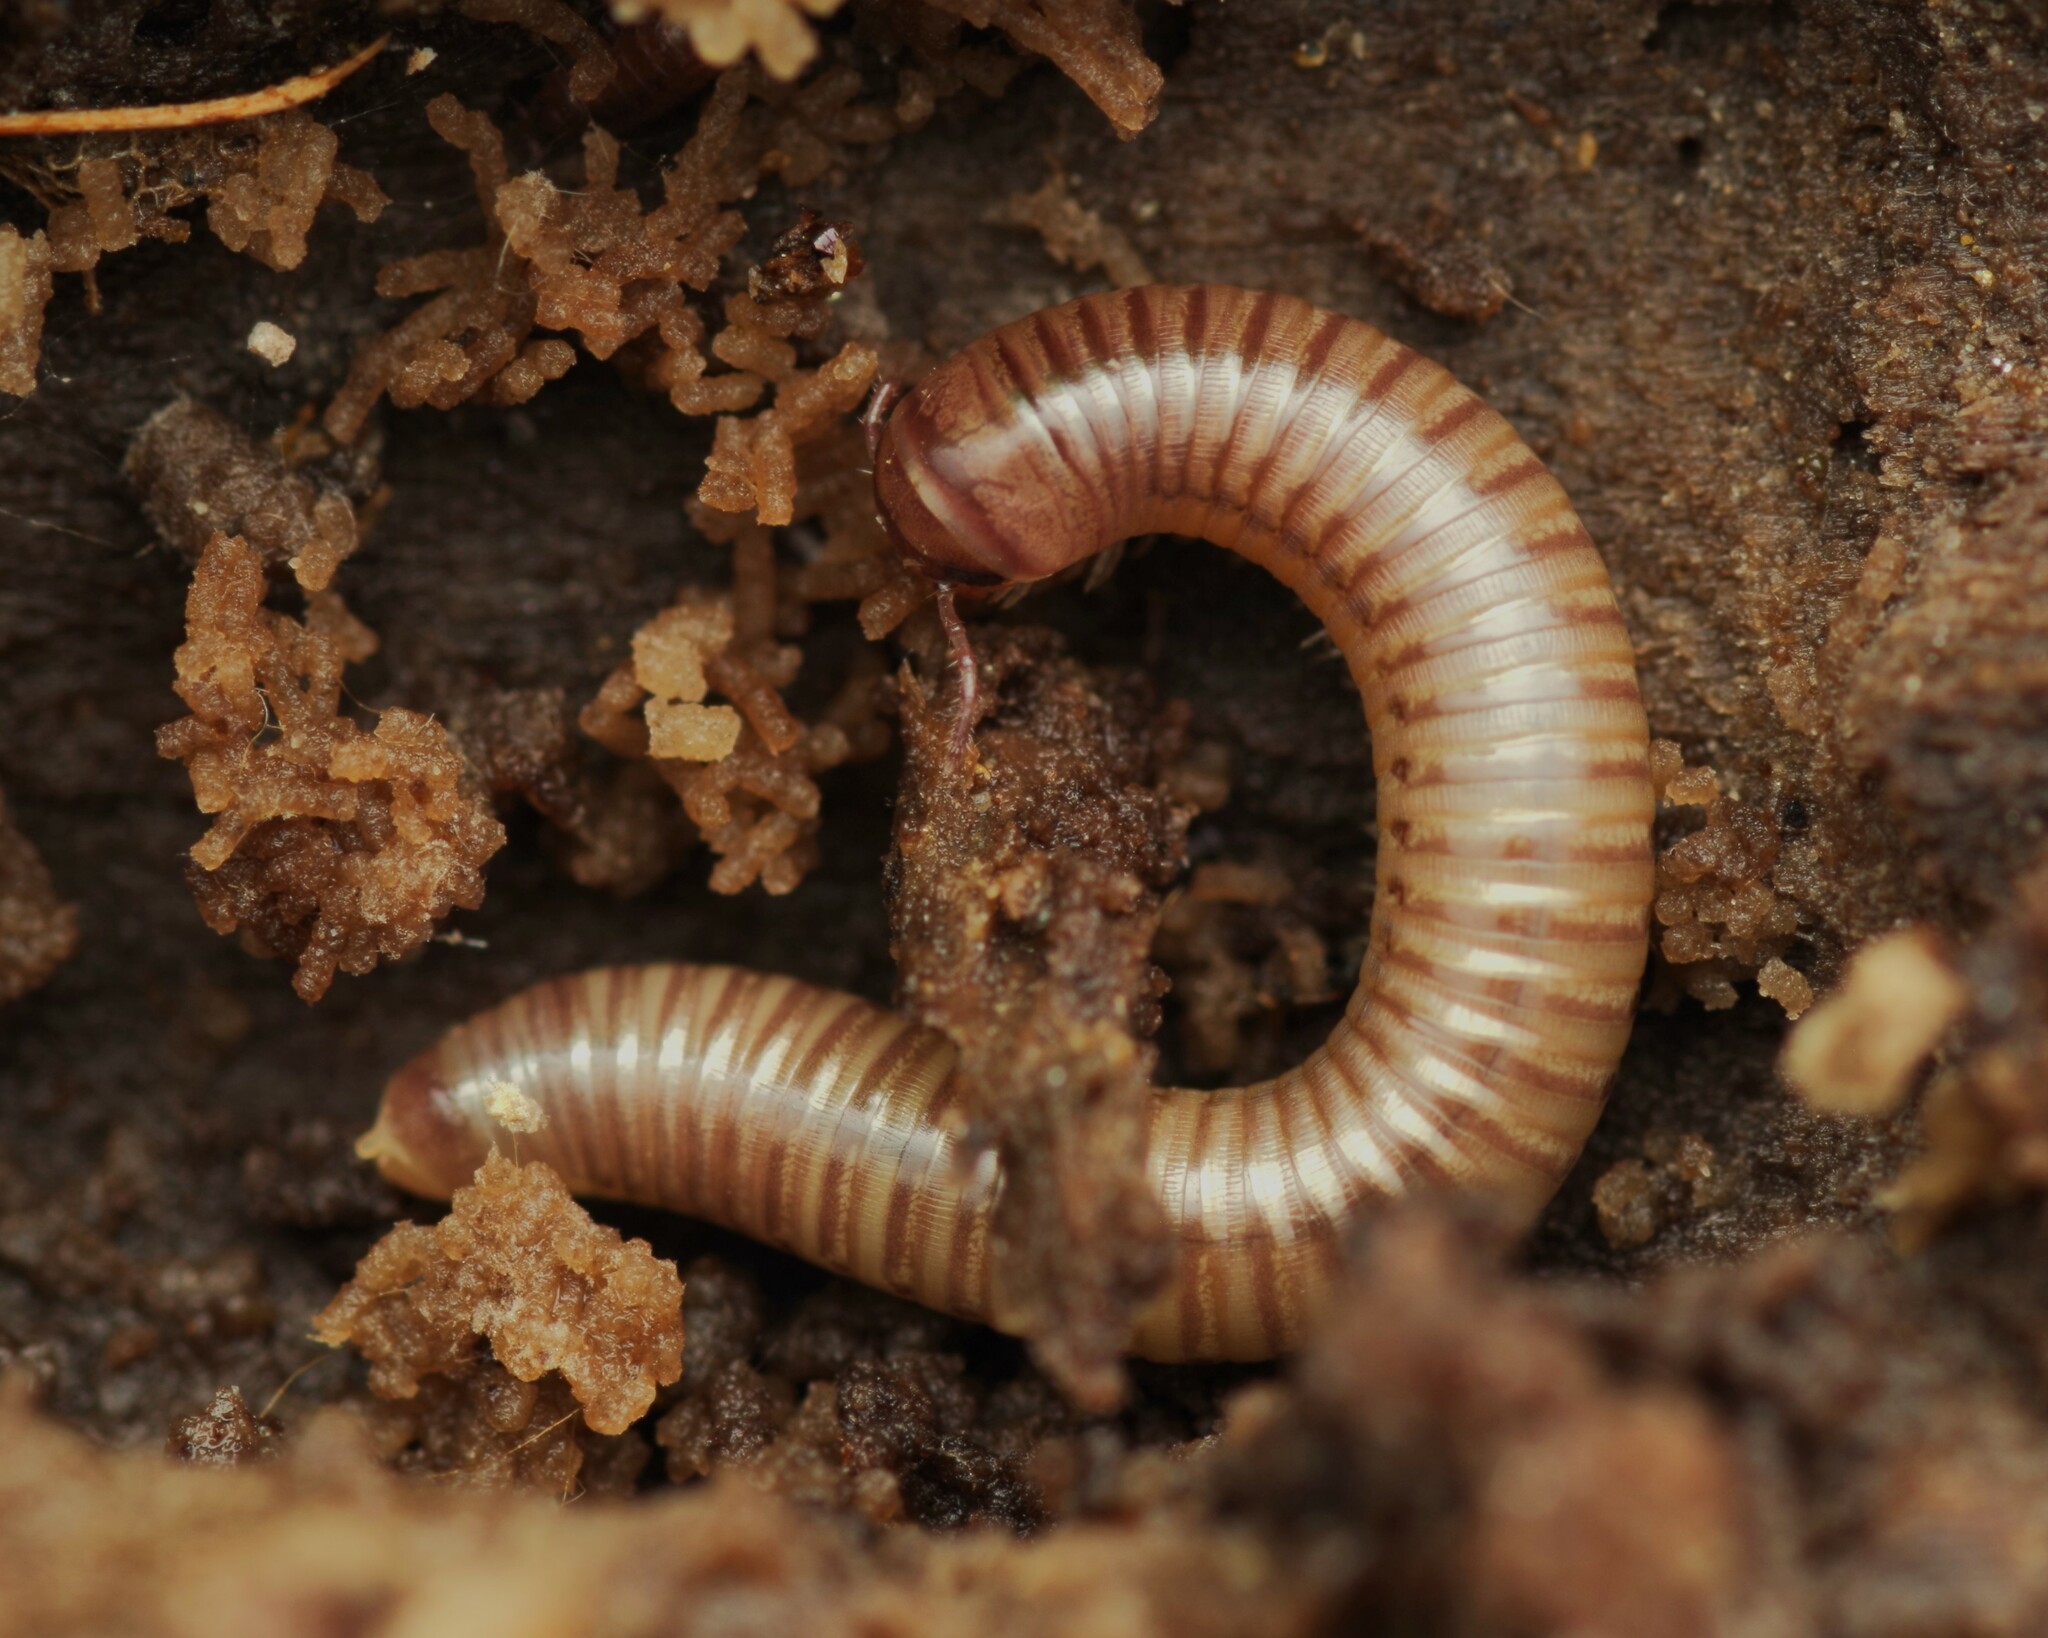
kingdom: Animalia
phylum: Arthropoda
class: Diplopoda
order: Julida
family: Julidae
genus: Cylindroiulus
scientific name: Cylindroiulus punctatus
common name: Blunt-tailed millipede
